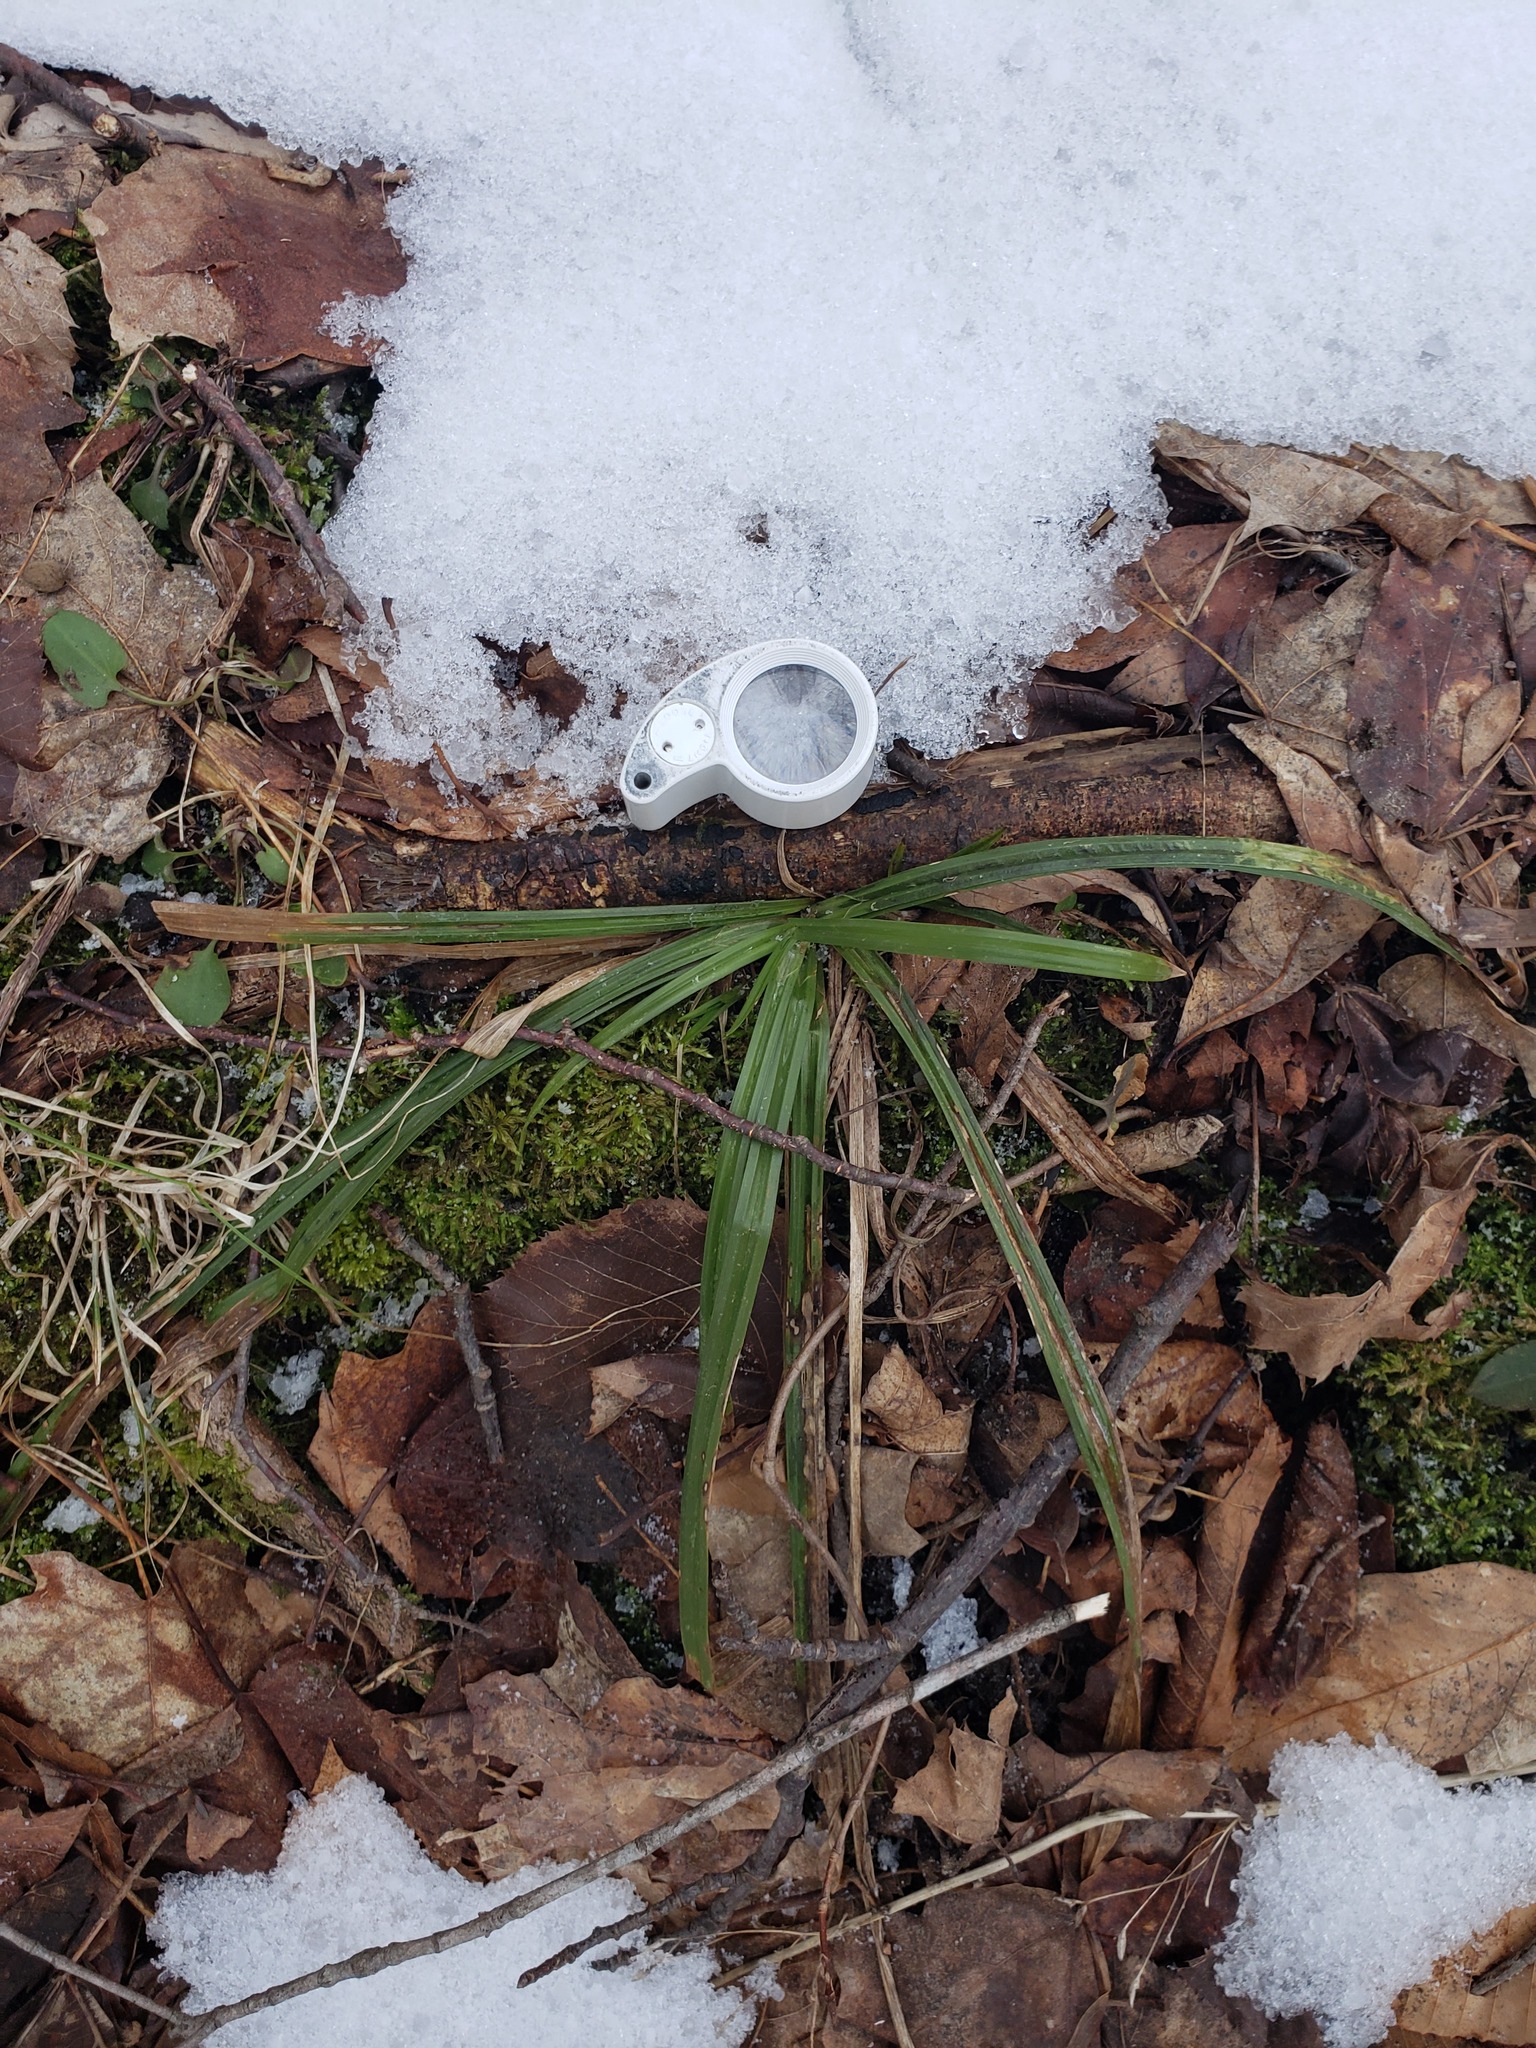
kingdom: Plantae
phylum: Tracheophyta
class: Liliopsida
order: Poales
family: Cyperaceae
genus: Carex
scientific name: Carex pedunculata
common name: Pedunculate sedge
